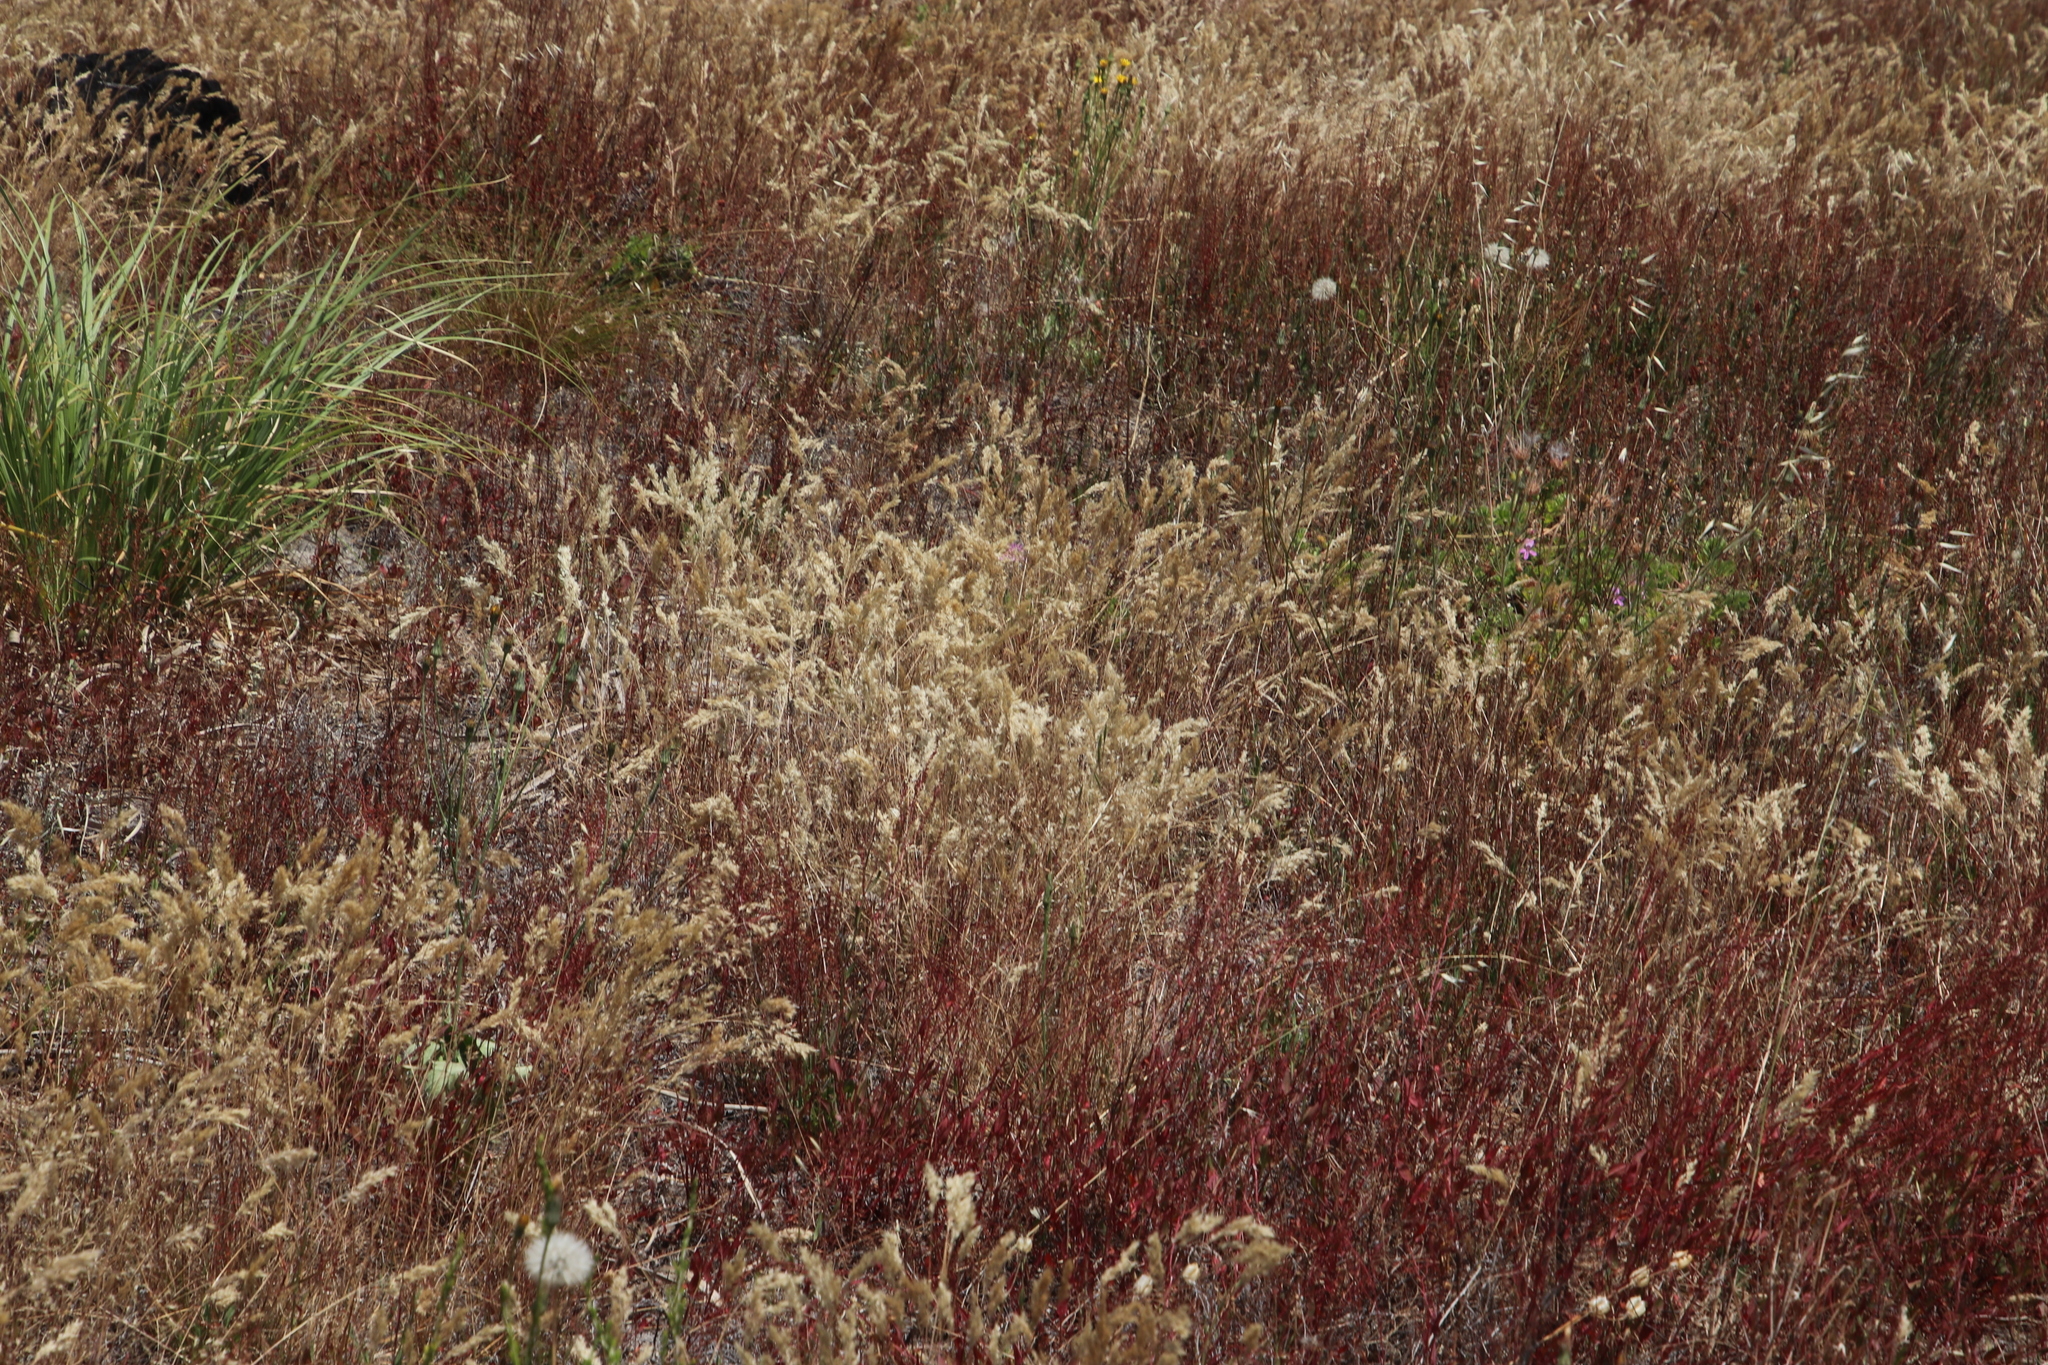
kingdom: Plantae
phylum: Tracheophyta
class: Liliopsida
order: Poales
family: Poaceae
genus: Pentameris
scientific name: Pentameris pallida
